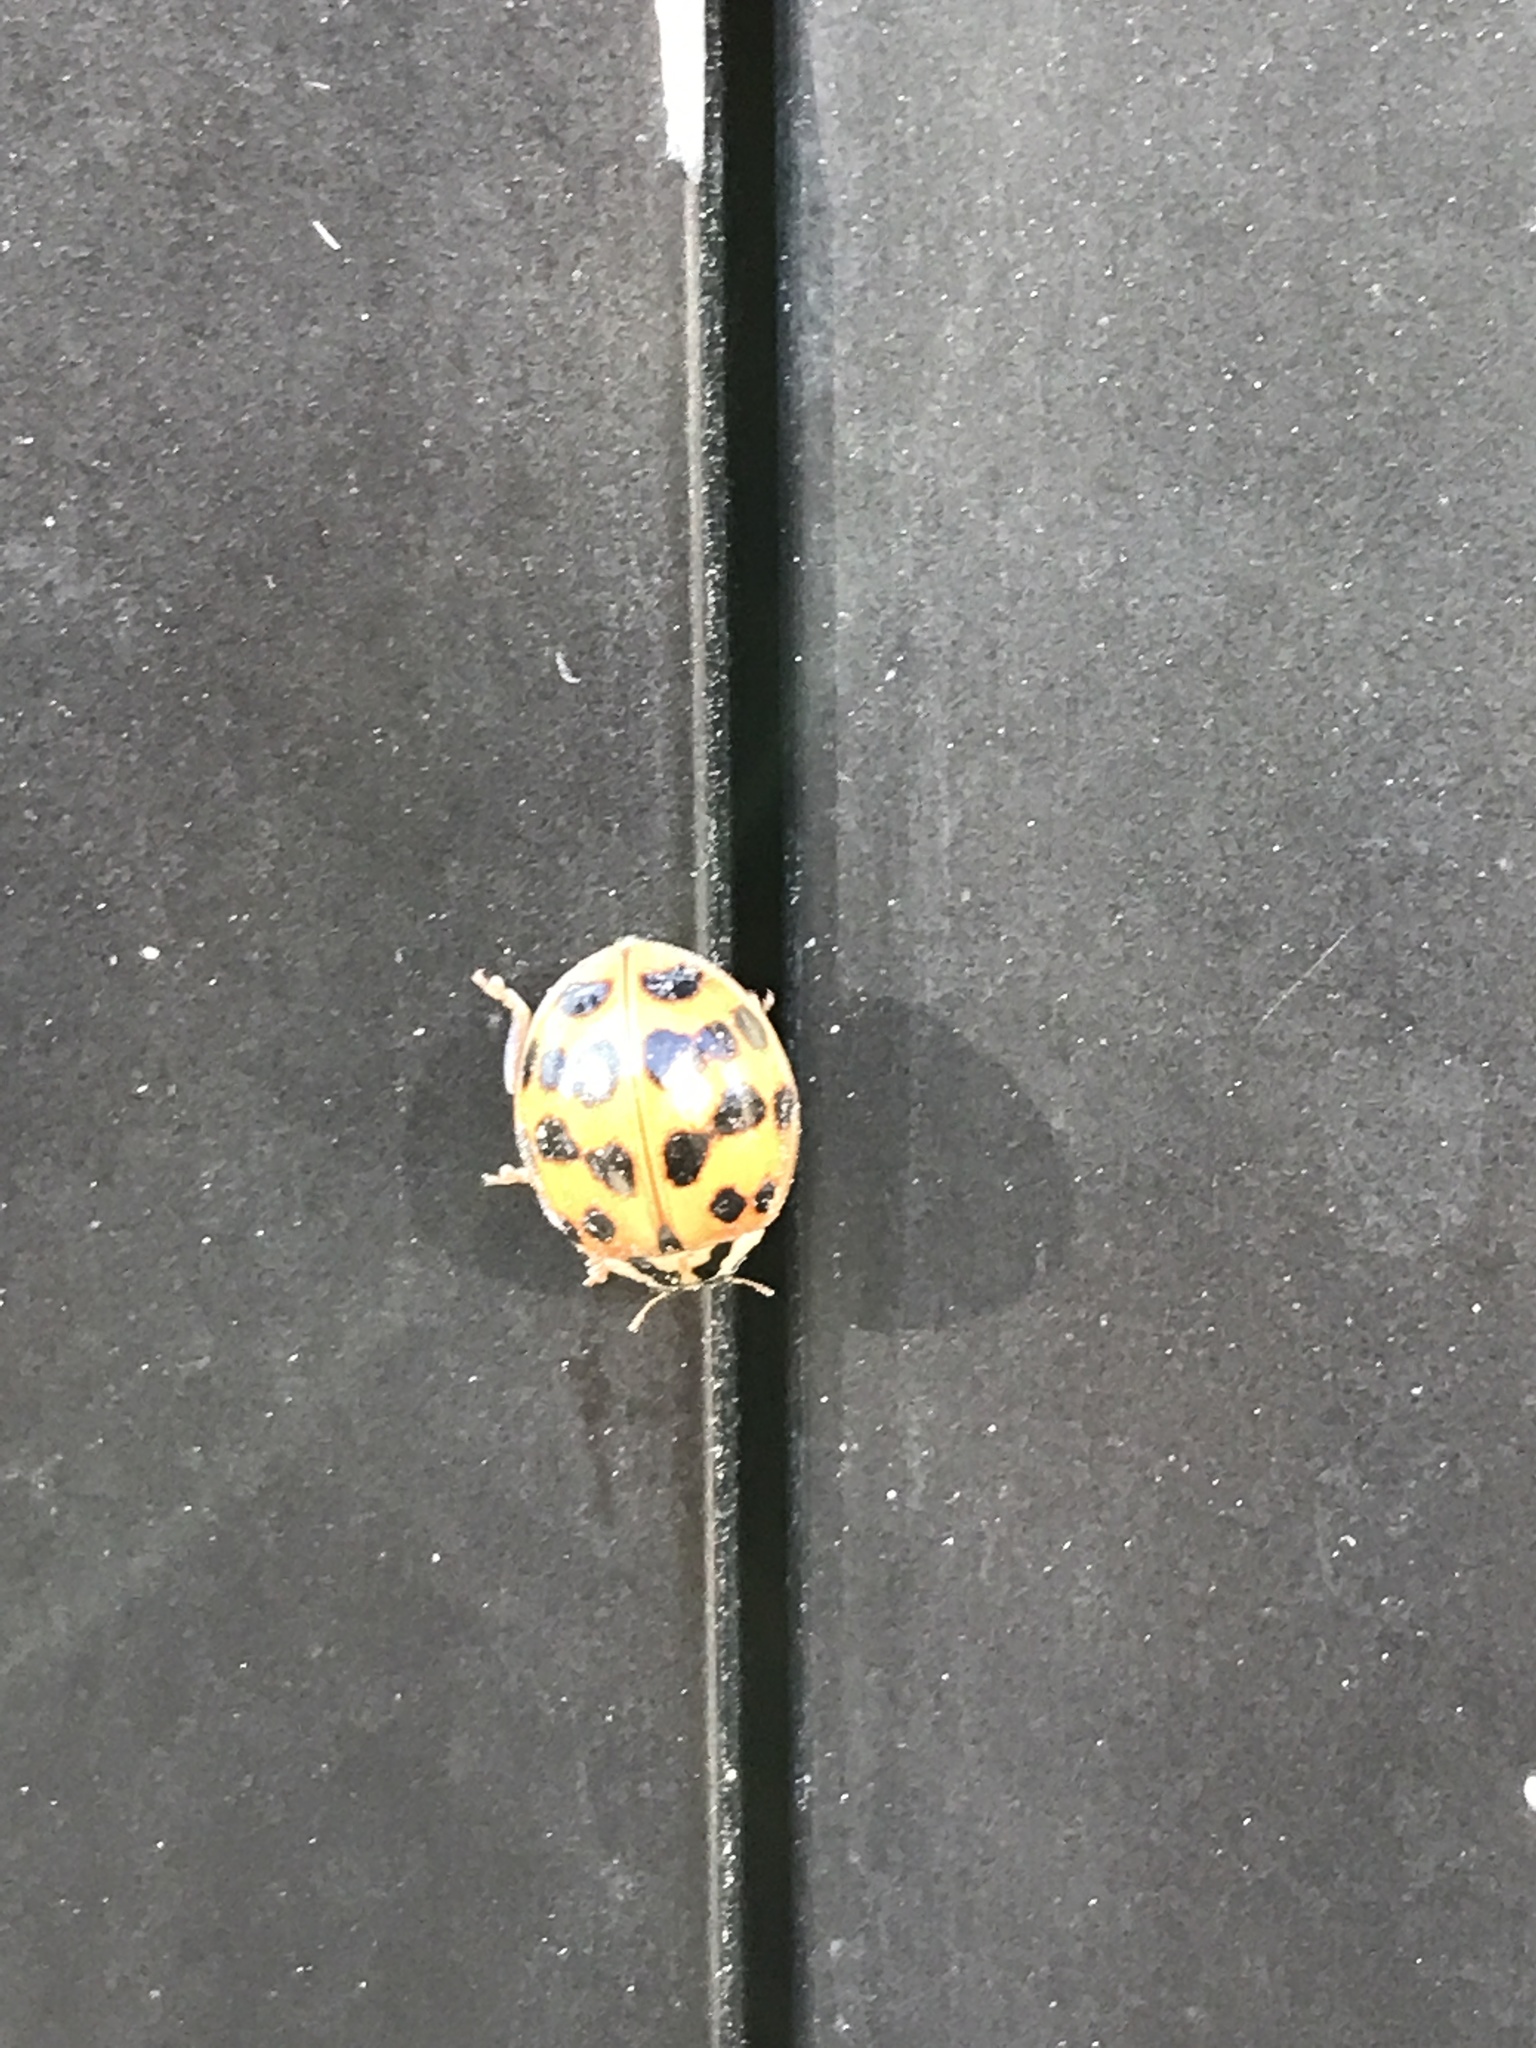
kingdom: Animalia
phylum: Arthropoda
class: Insecta
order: Coleoptera
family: Coccinellidae
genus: Harmonia
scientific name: Harmonia axyridis
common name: Harlequin ladybird
